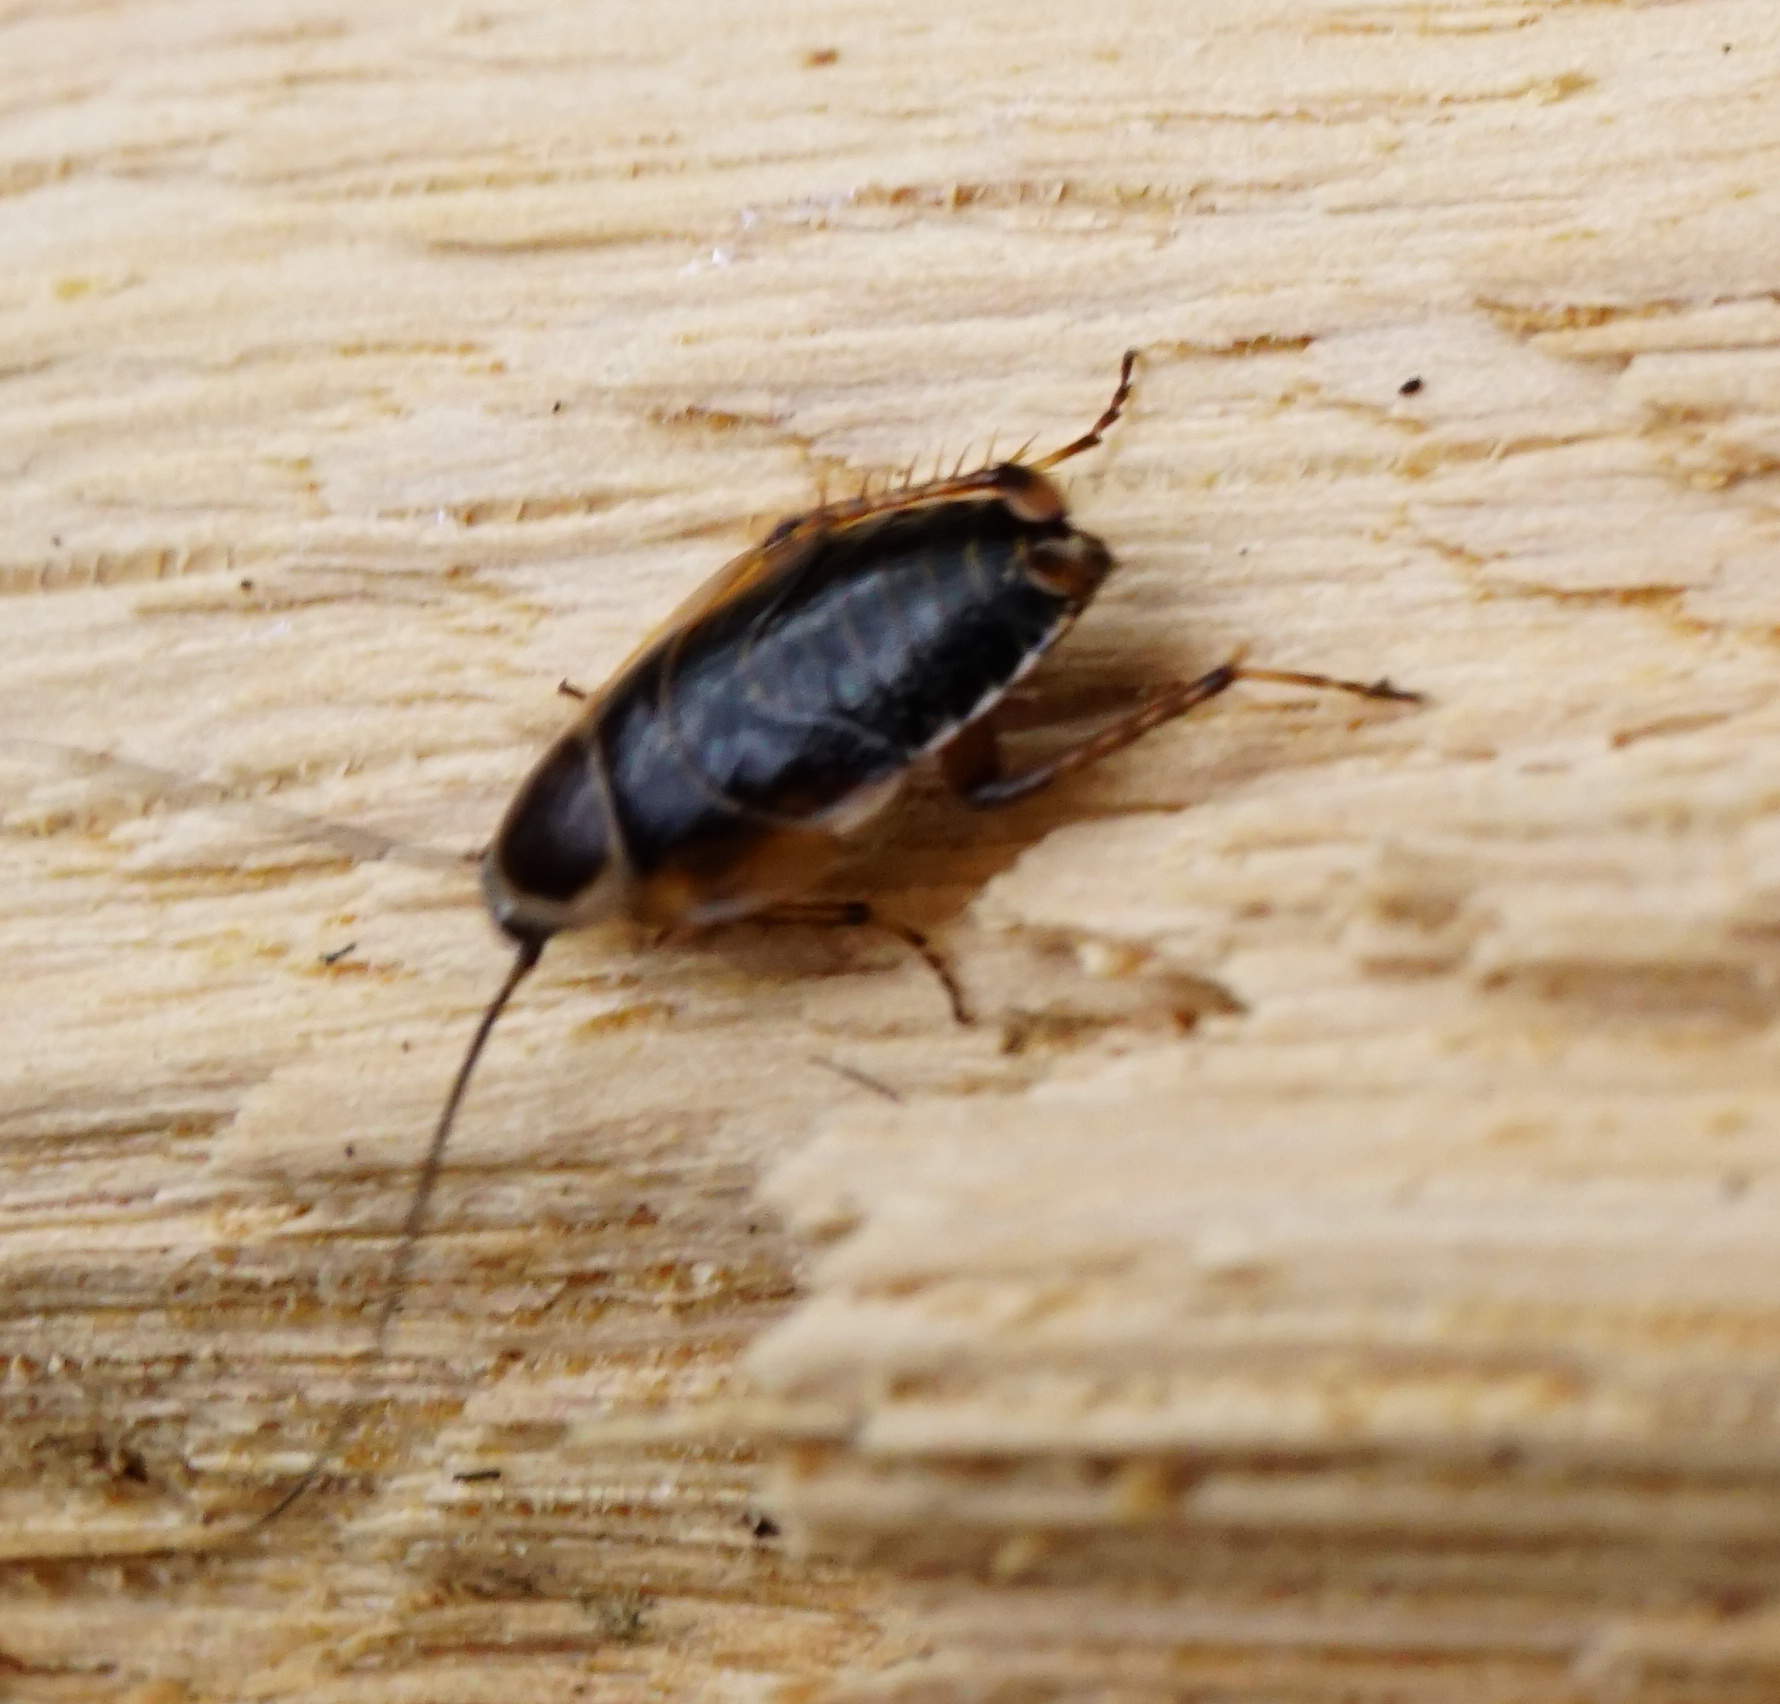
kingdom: Animalia
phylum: Arthropoda
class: Insecta
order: Blattodea
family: Ectobiidae
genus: Ectobius
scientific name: Ectobius sylvestris
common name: Forest cockroach
